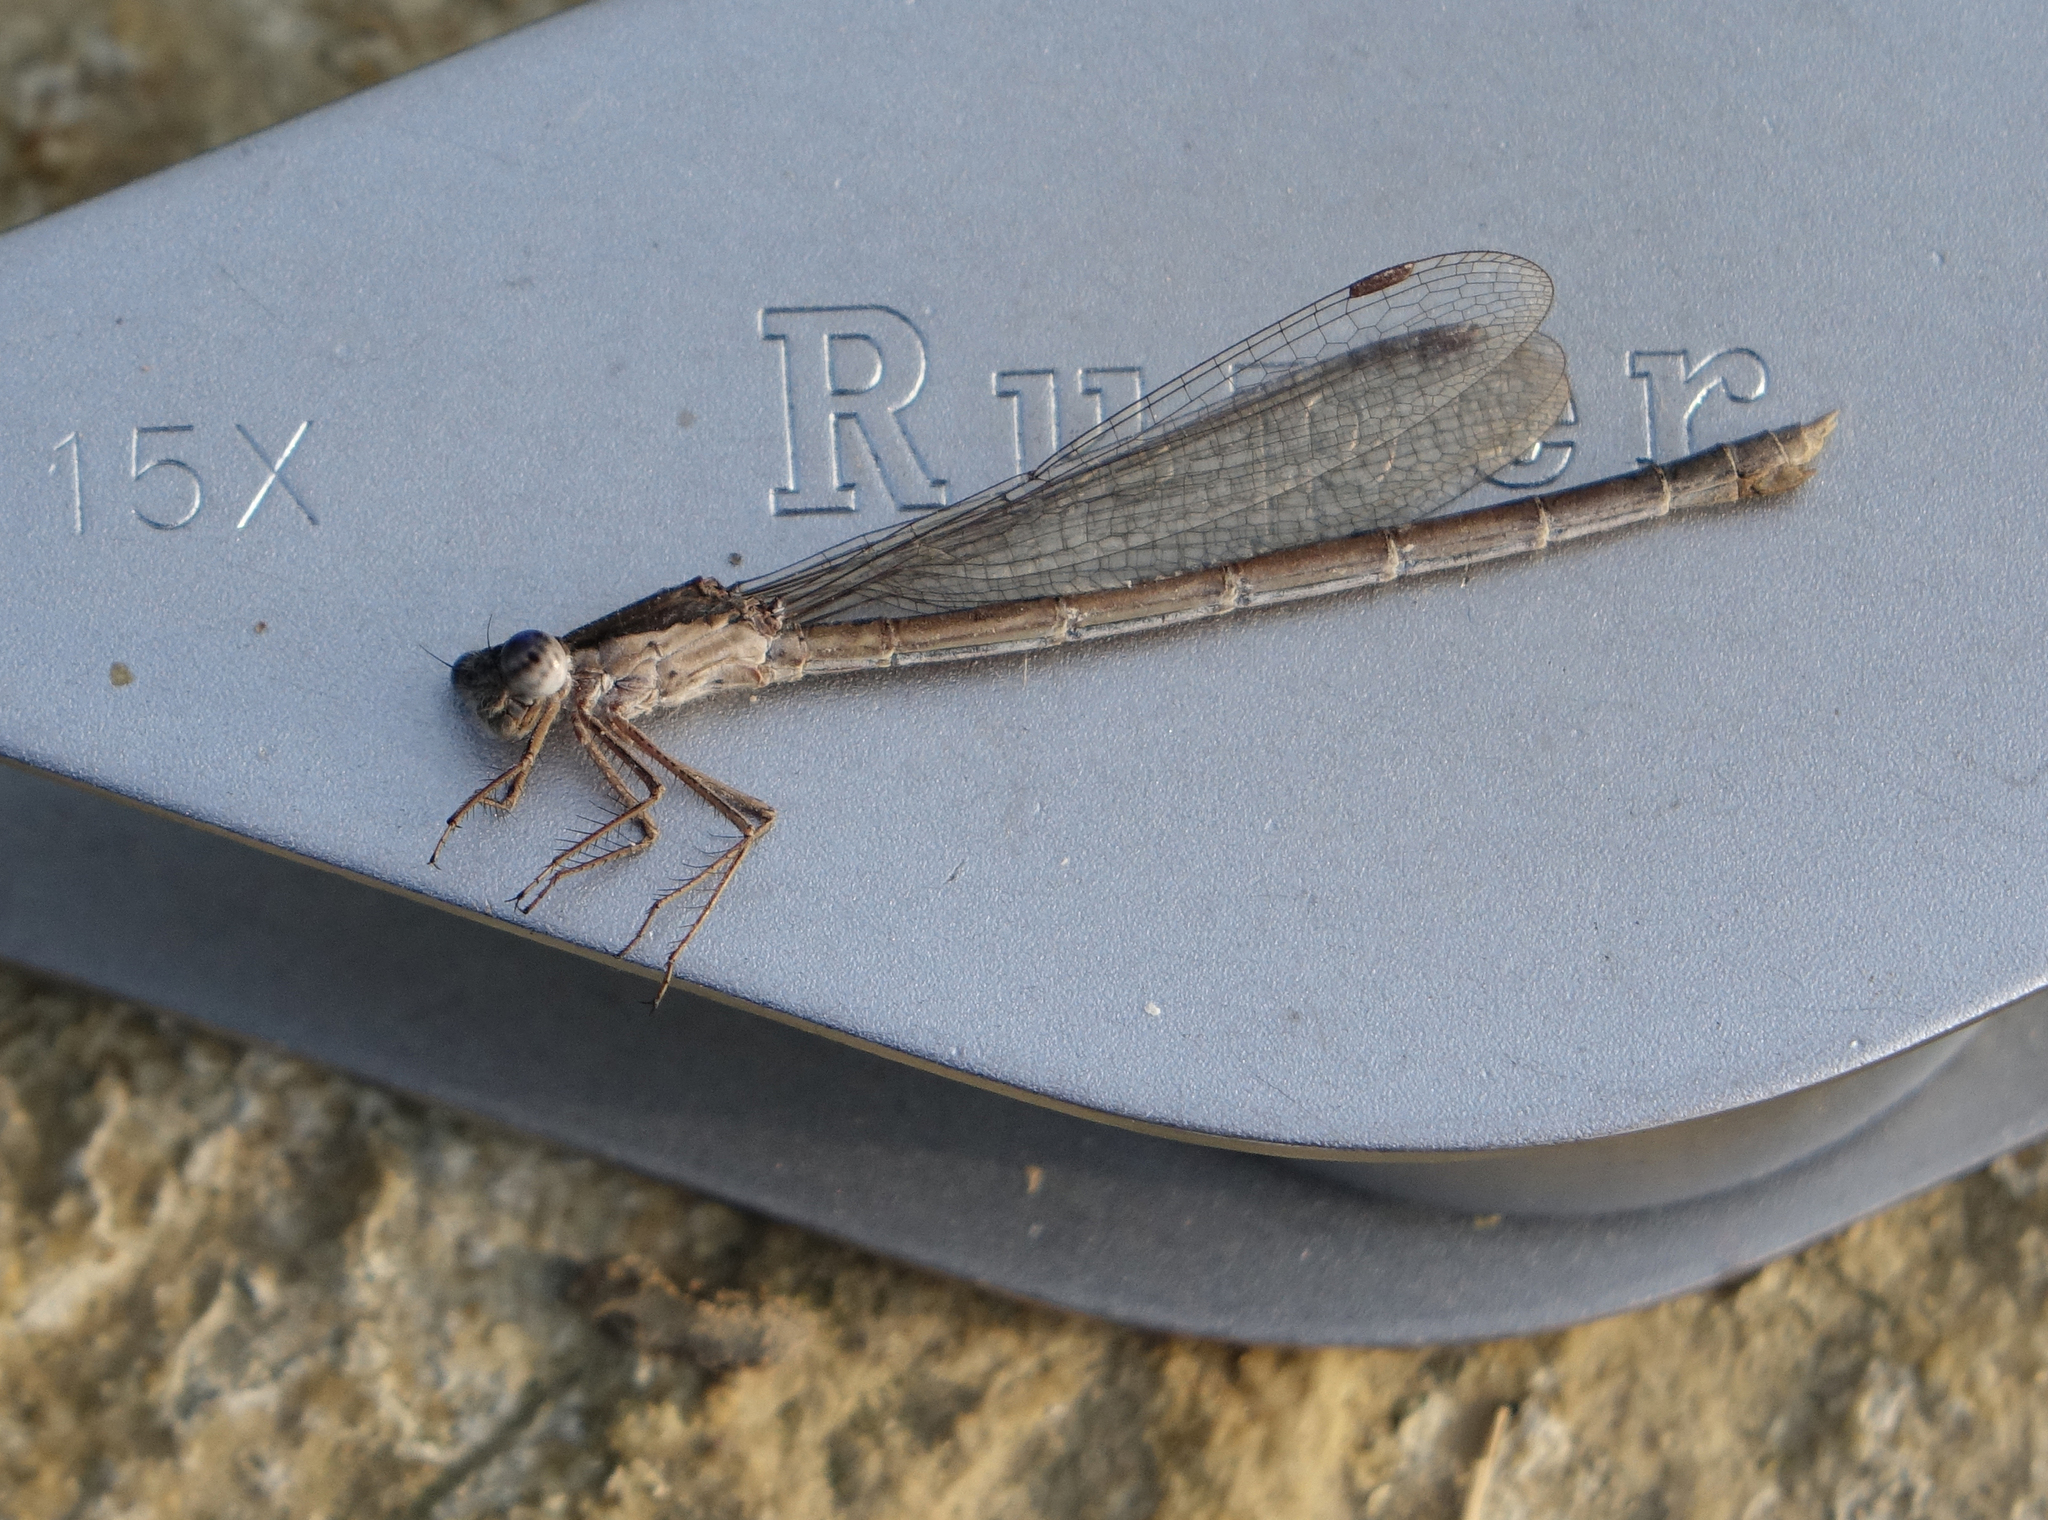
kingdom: Animalia
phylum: Arthropoda
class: Insecta
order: Odonata
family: Lestidae
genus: Sympecma
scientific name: Sympecma fusca
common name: Common winter damsel
